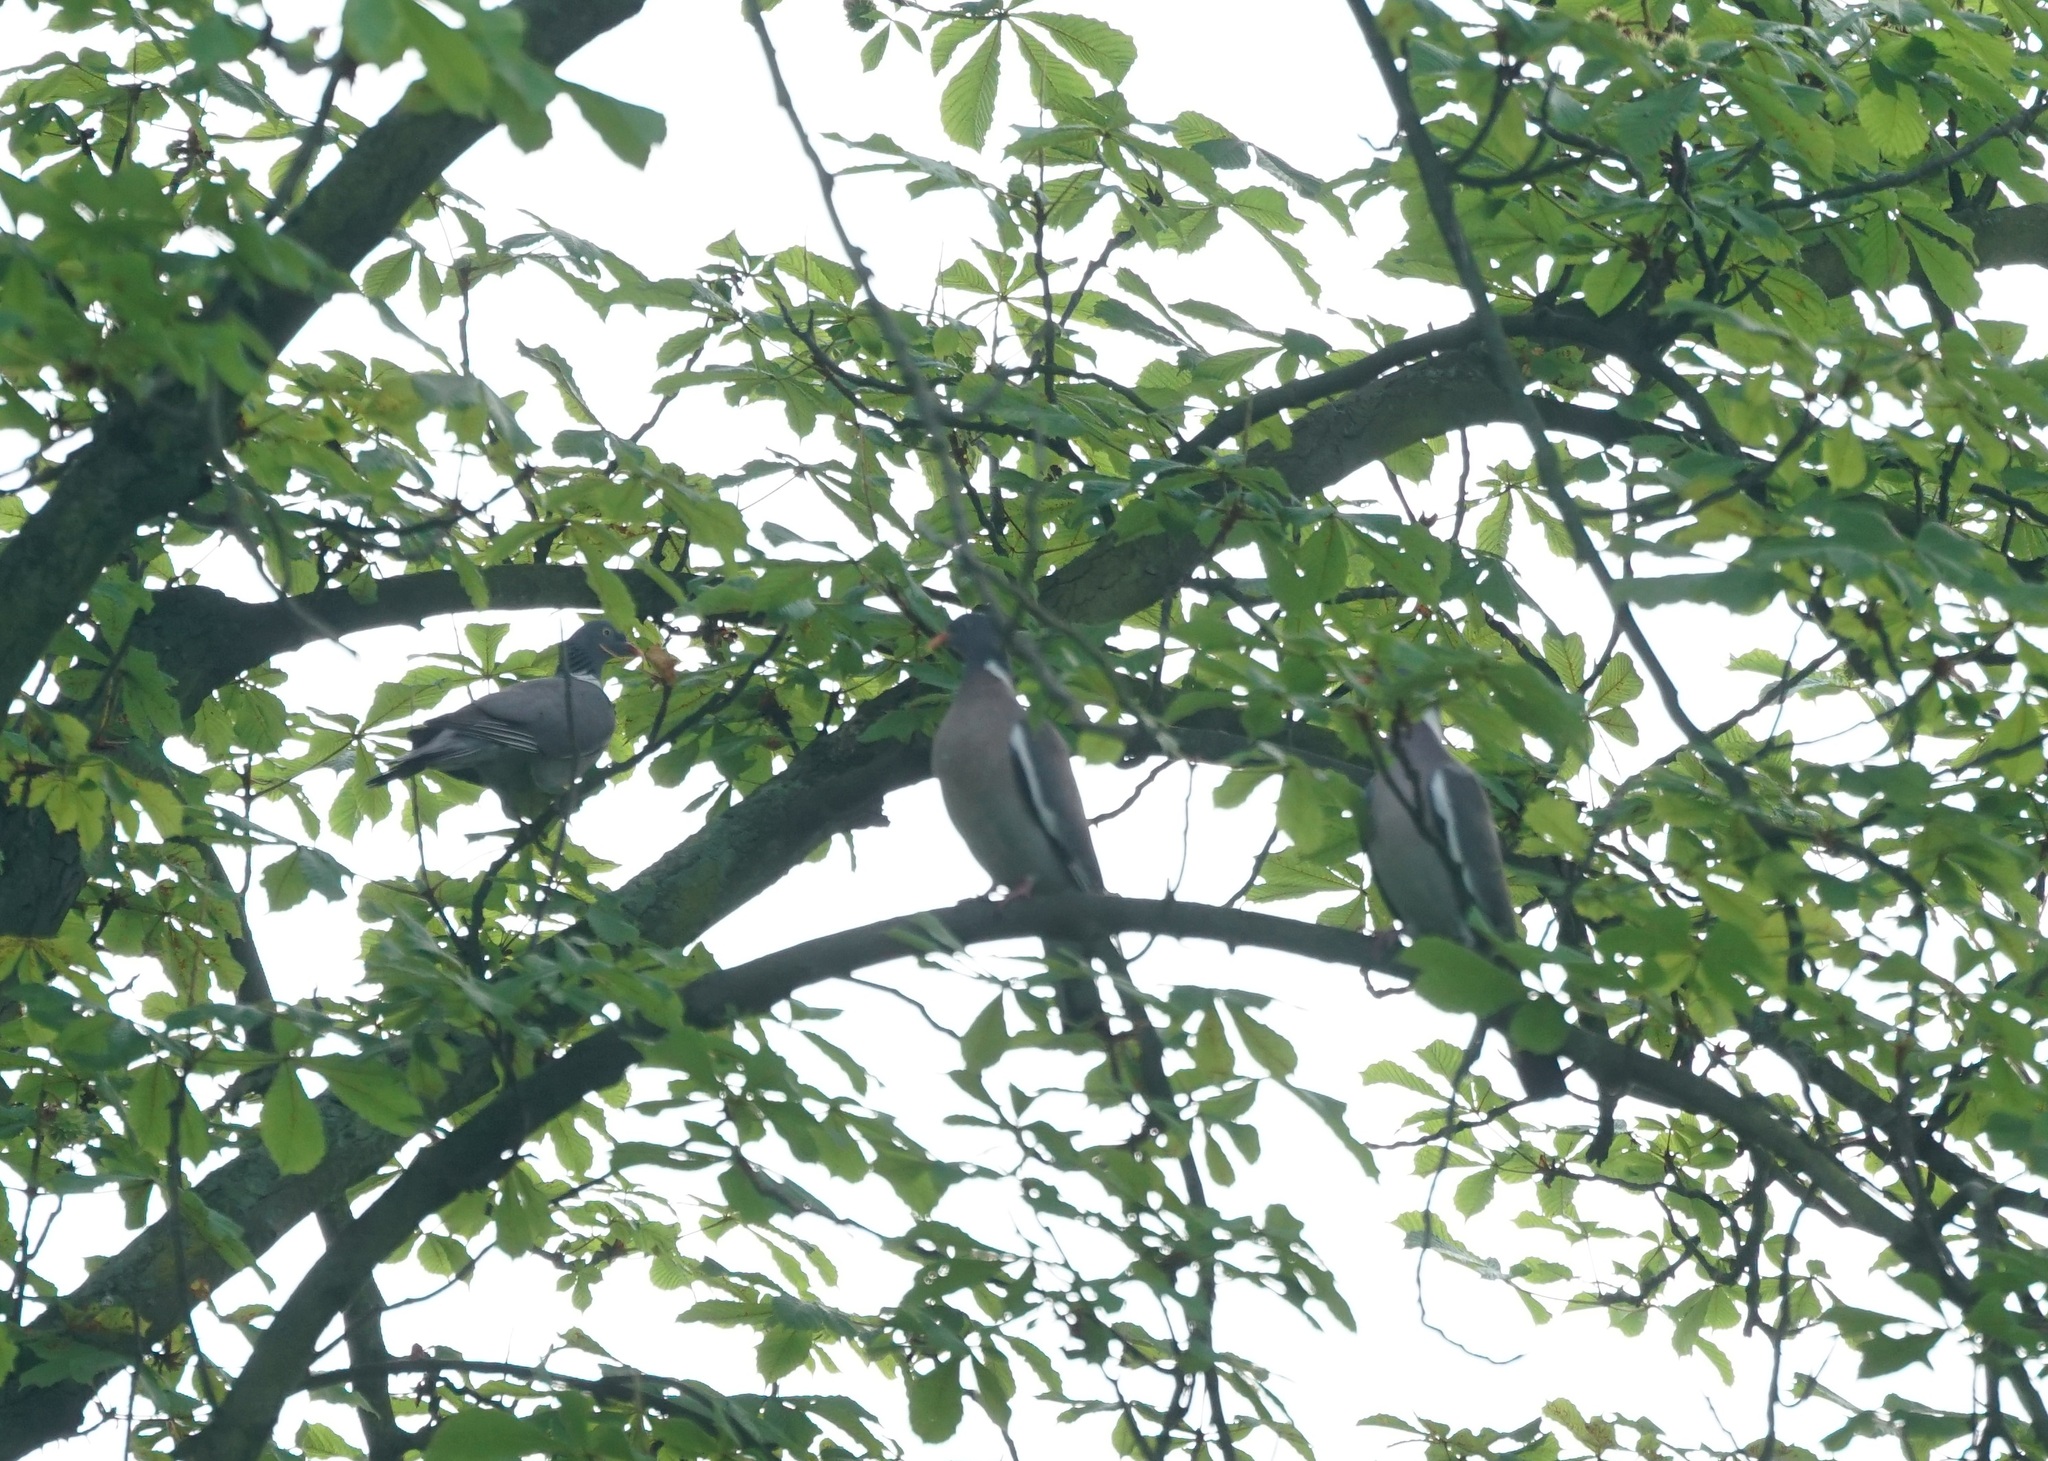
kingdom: Animalia
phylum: Chordata
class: Aves
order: Columbiformes
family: Columbidae
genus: Columba
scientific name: Columba palumbus
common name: Common wood pigeon
